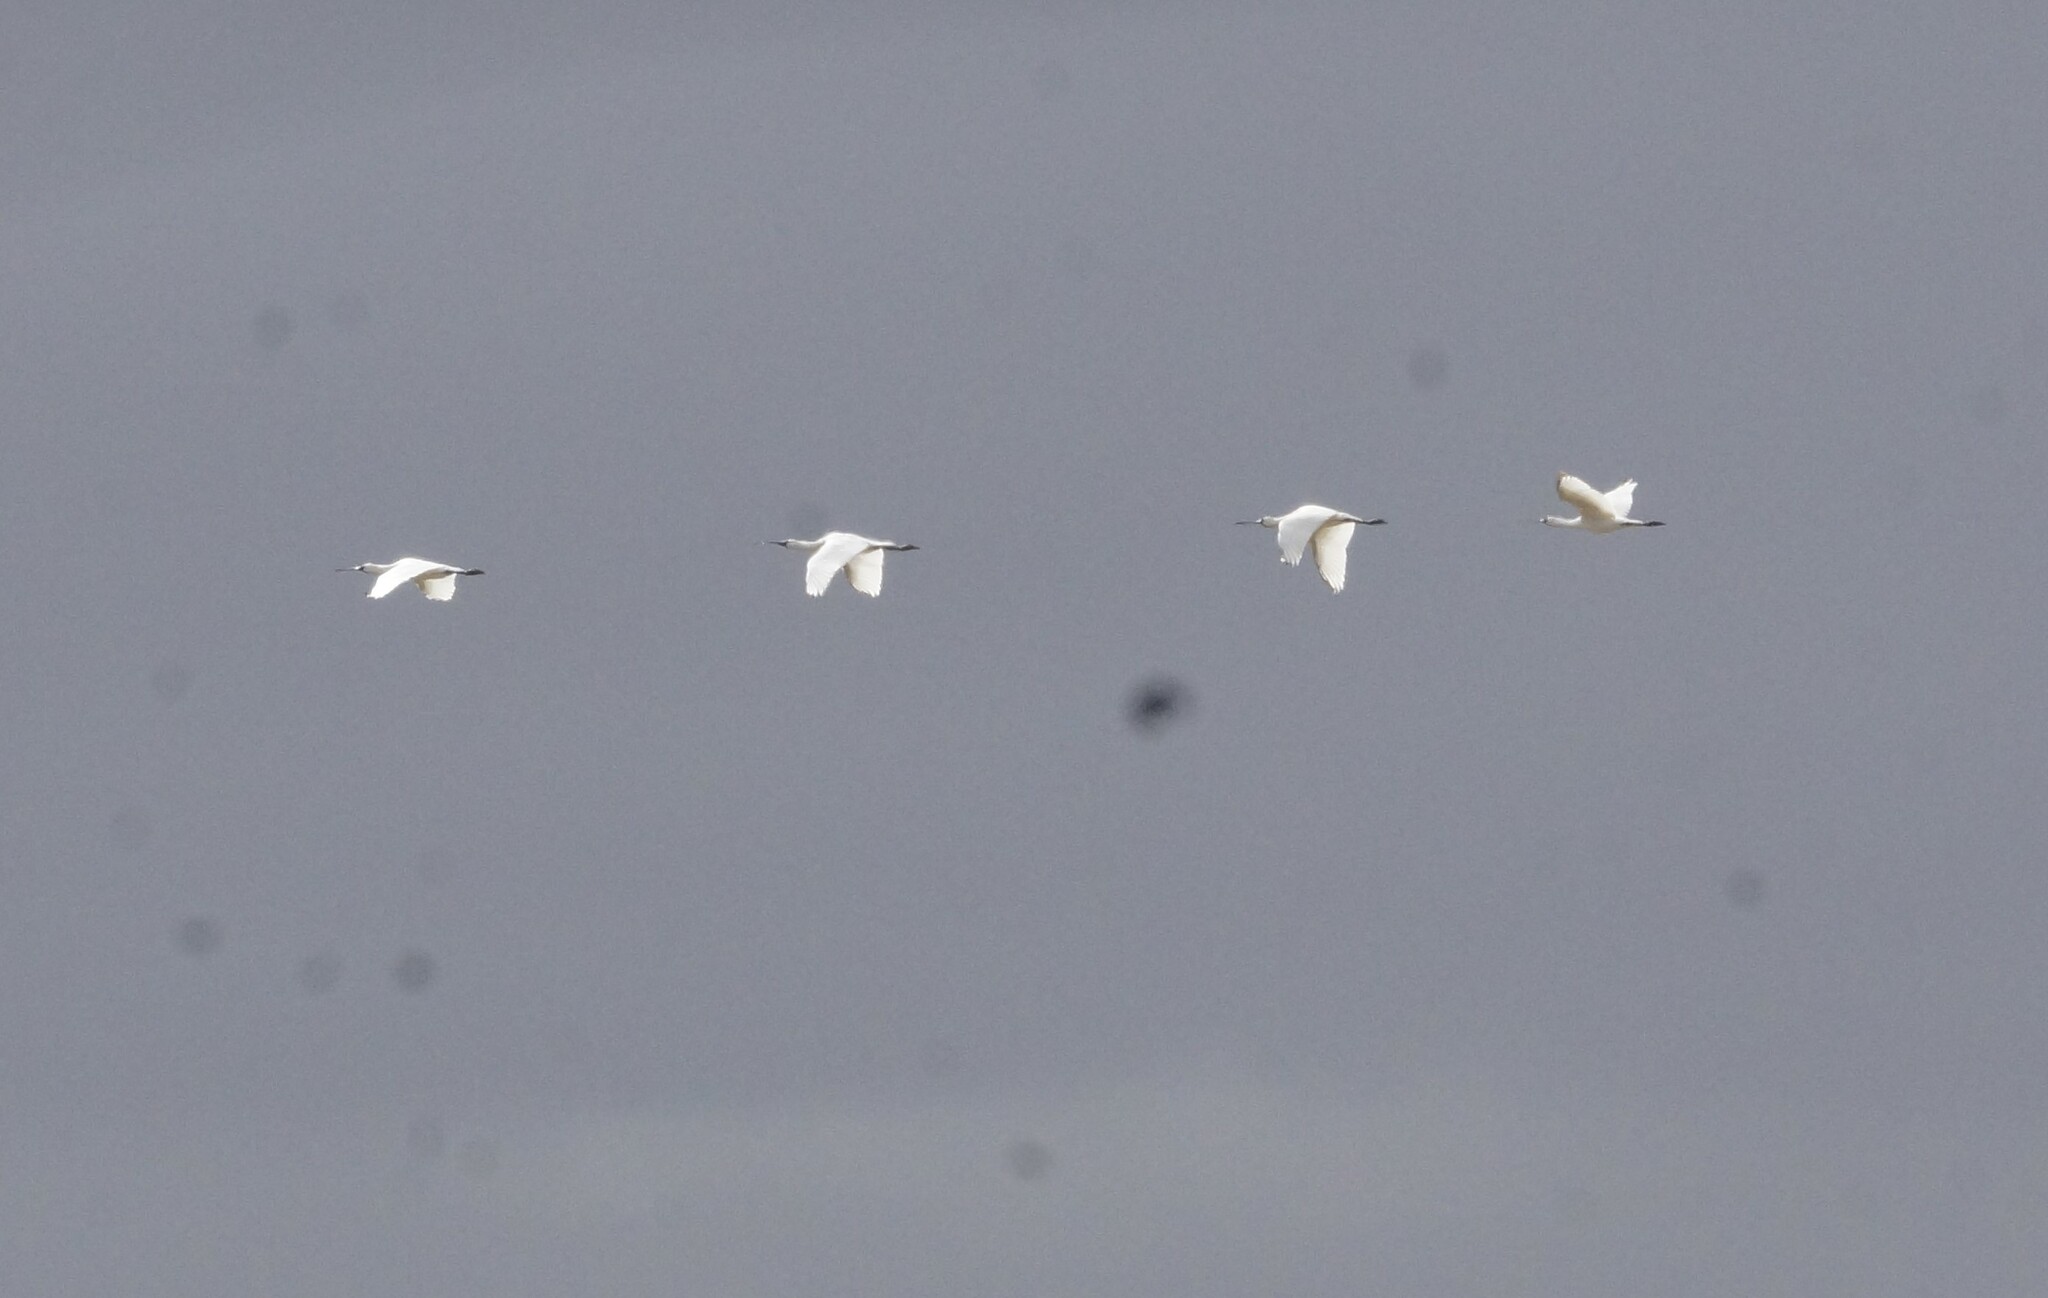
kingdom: Animalia
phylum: Chordata
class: Aves
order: Pelecaniformes
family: Threskiornithidae
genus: Platalea
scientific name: Platalea regia
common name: Royal spoonbill
